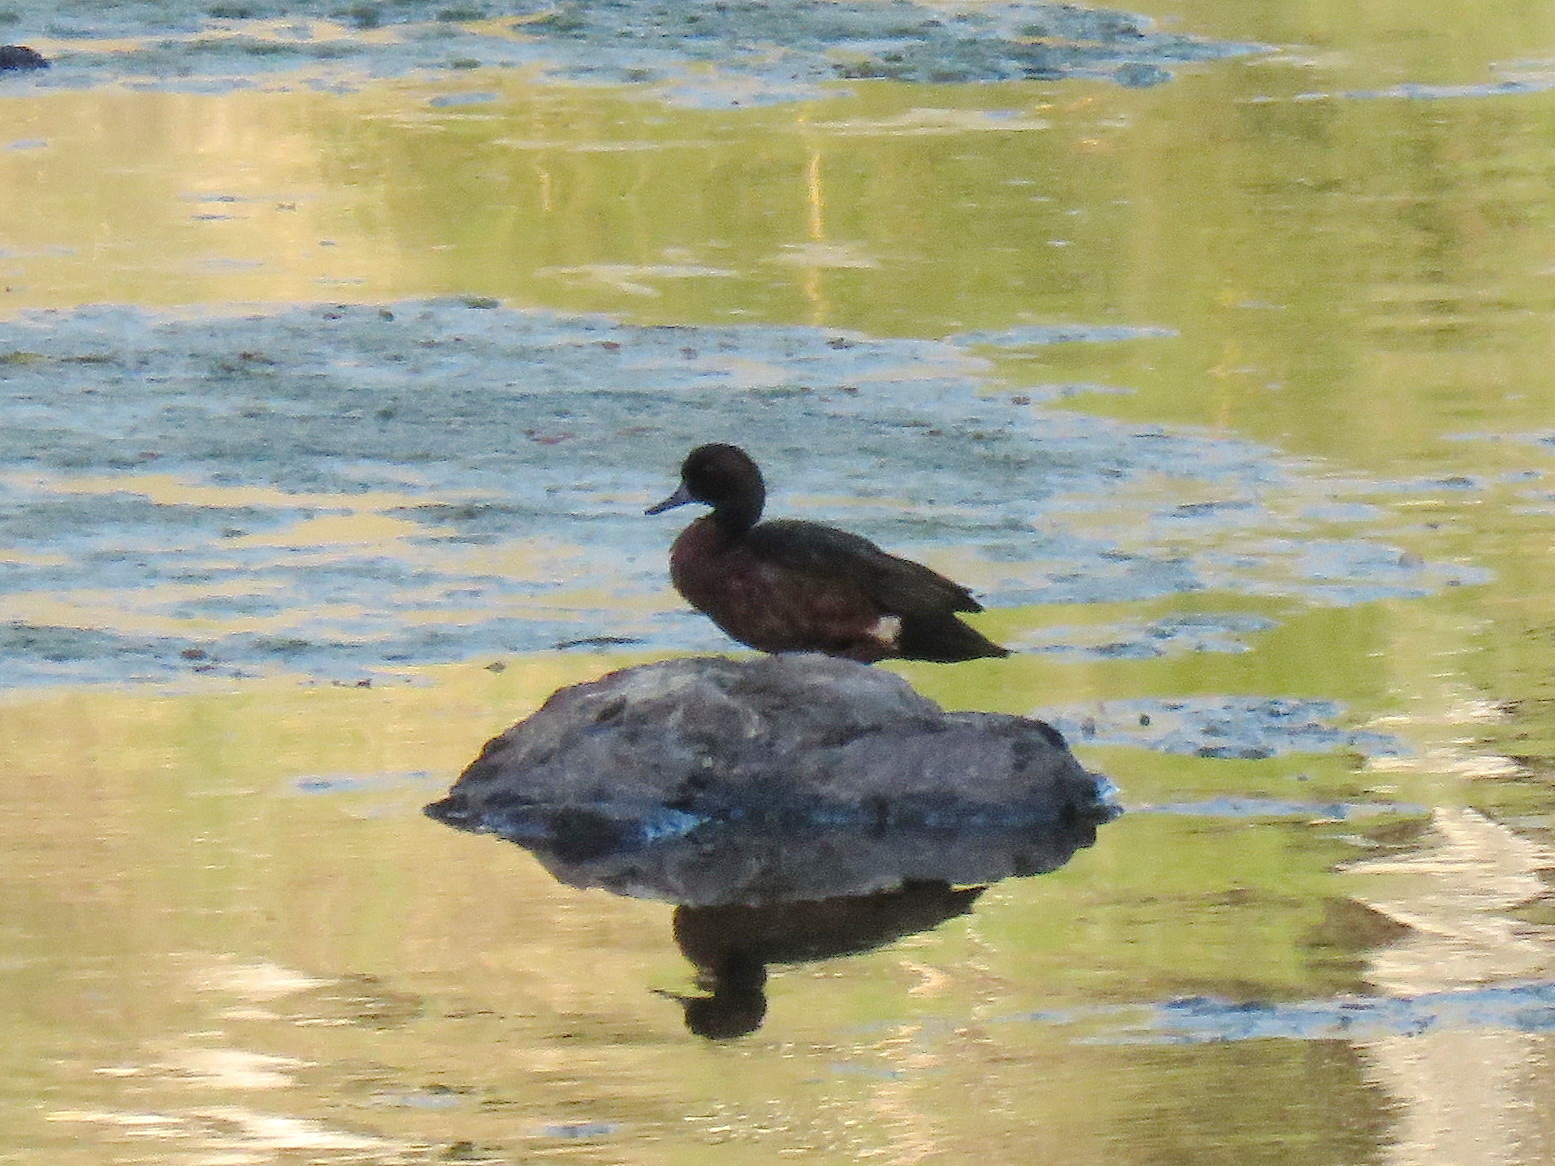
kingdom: Animalia
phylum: Chordata
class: Aves
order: Anseriformes
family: Anatidae
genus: Anas
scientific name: Anas castanea
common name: Chestnut teal
